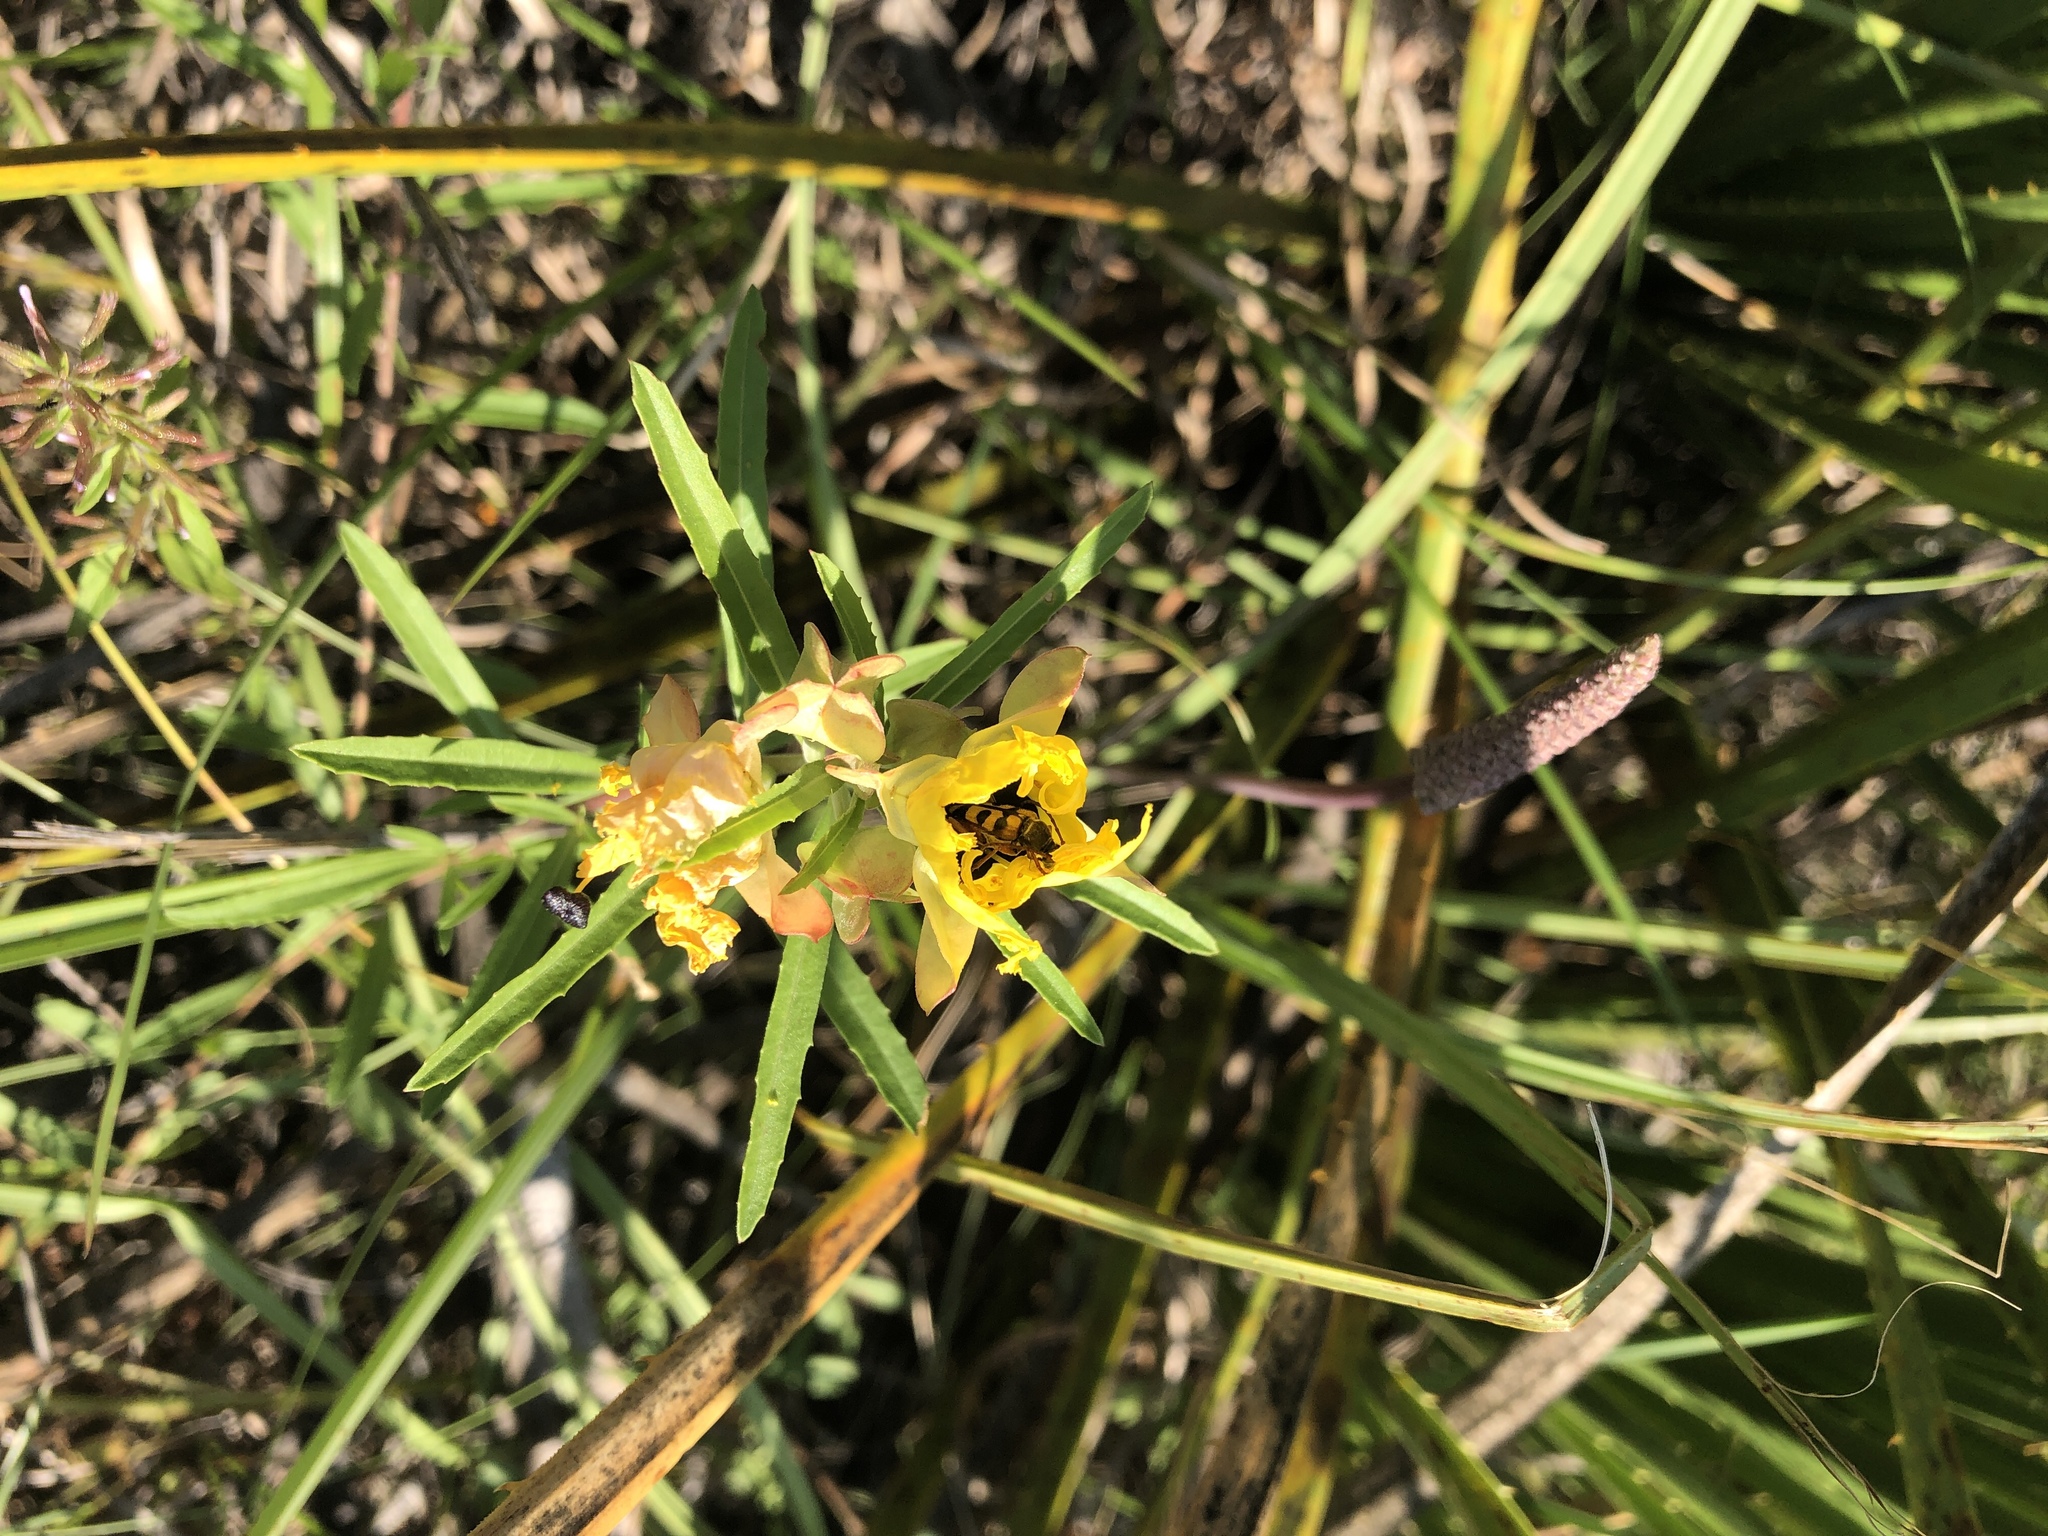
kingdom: Plantae
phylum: Tracheophyta
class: Magnoliopsida
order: Myrtales
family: Onagraceae
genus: Oenothera
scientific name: Oenothera
